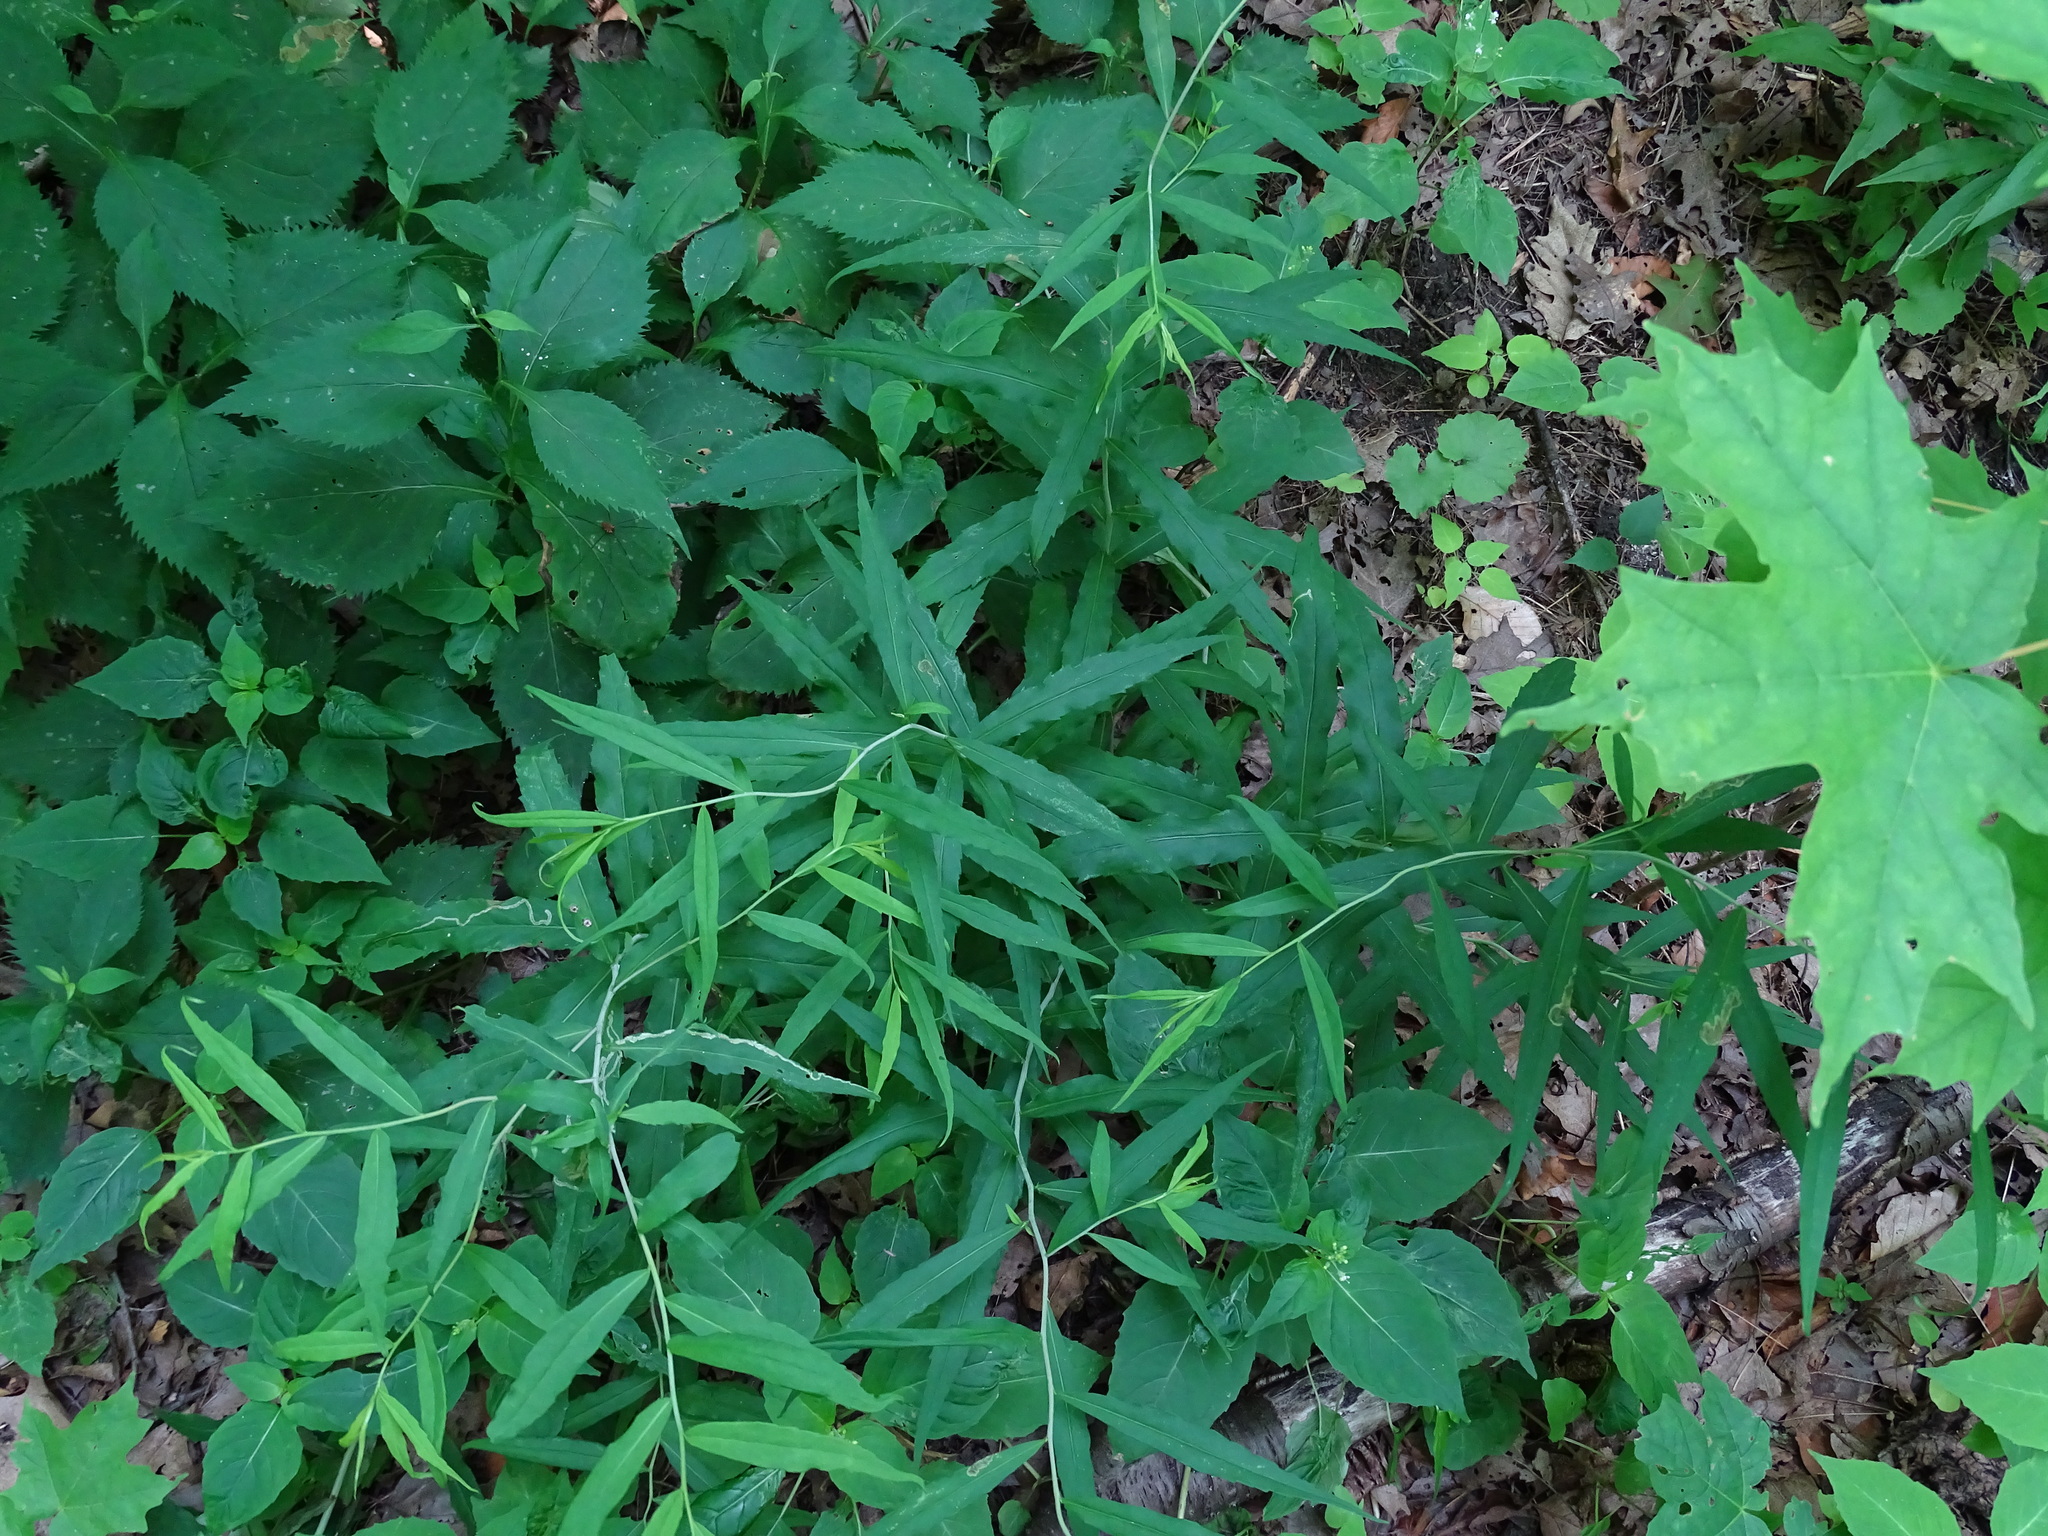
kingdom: Plantae
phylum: Tracheophyta
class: Magnoliopsida
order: Asterales
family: Asteraceae
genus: Solidago
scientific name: Solidago caesia
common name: Woodland goldenrod
